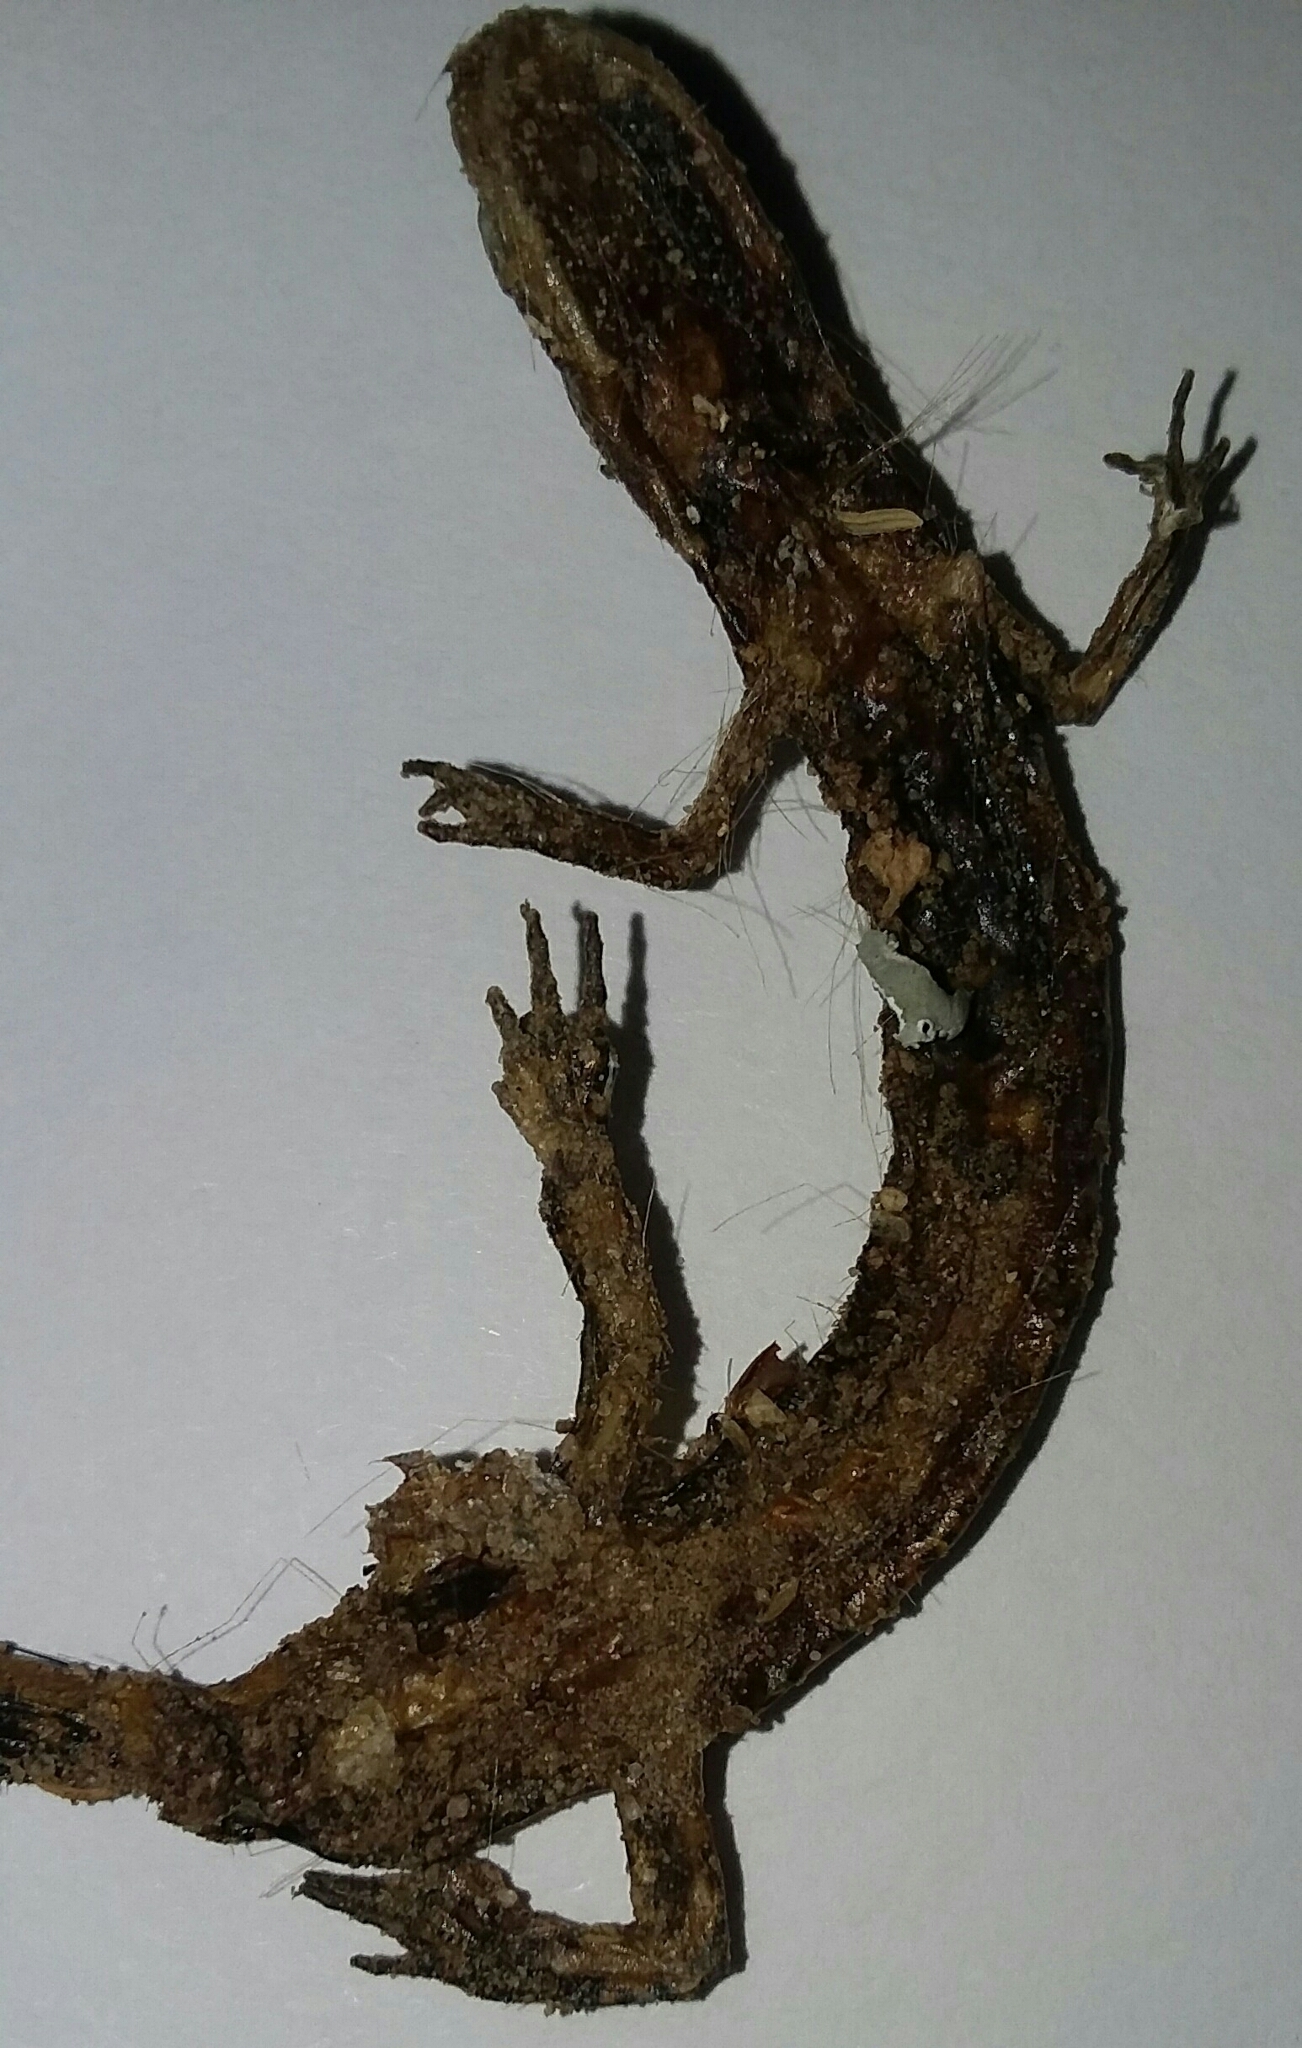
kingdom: Animalia
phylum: Chordata
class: Amphibia
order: Caudata
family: Plethodontidae
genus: Eurycea
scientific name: Eurycea longicauda
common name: Long-tailed salamander
